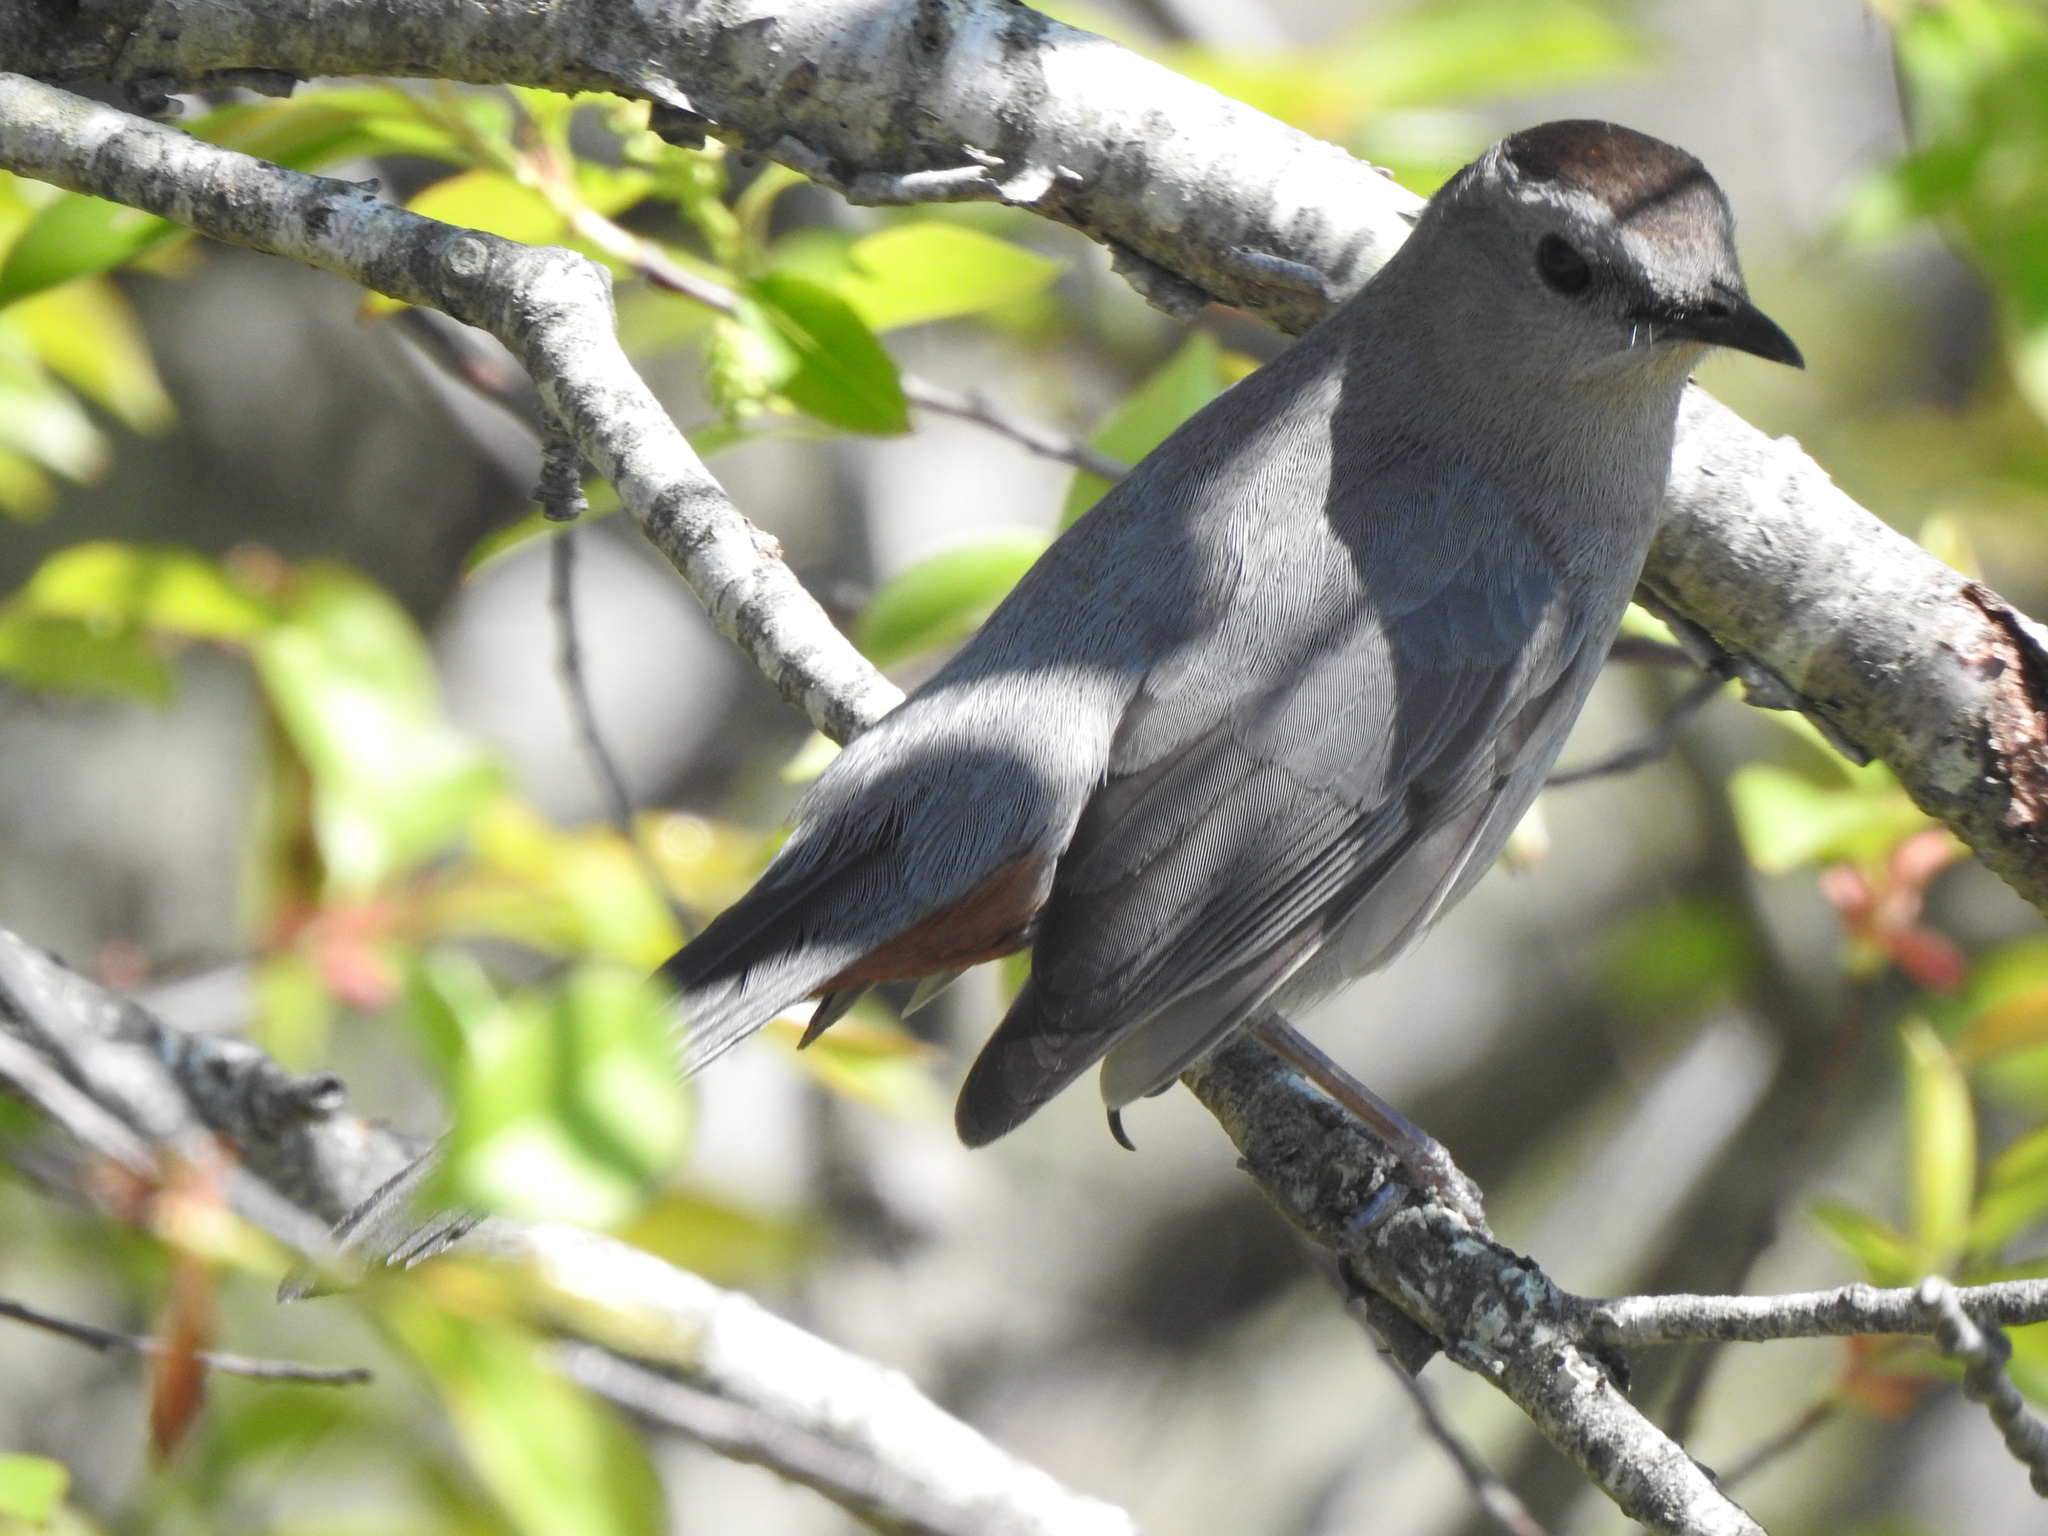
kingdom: Animalia
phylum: Chordata
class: Aves
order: Passeriformes
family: Mimidae
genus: Dumetella
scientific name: Dumetella carolinensis
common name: Gray catbird
